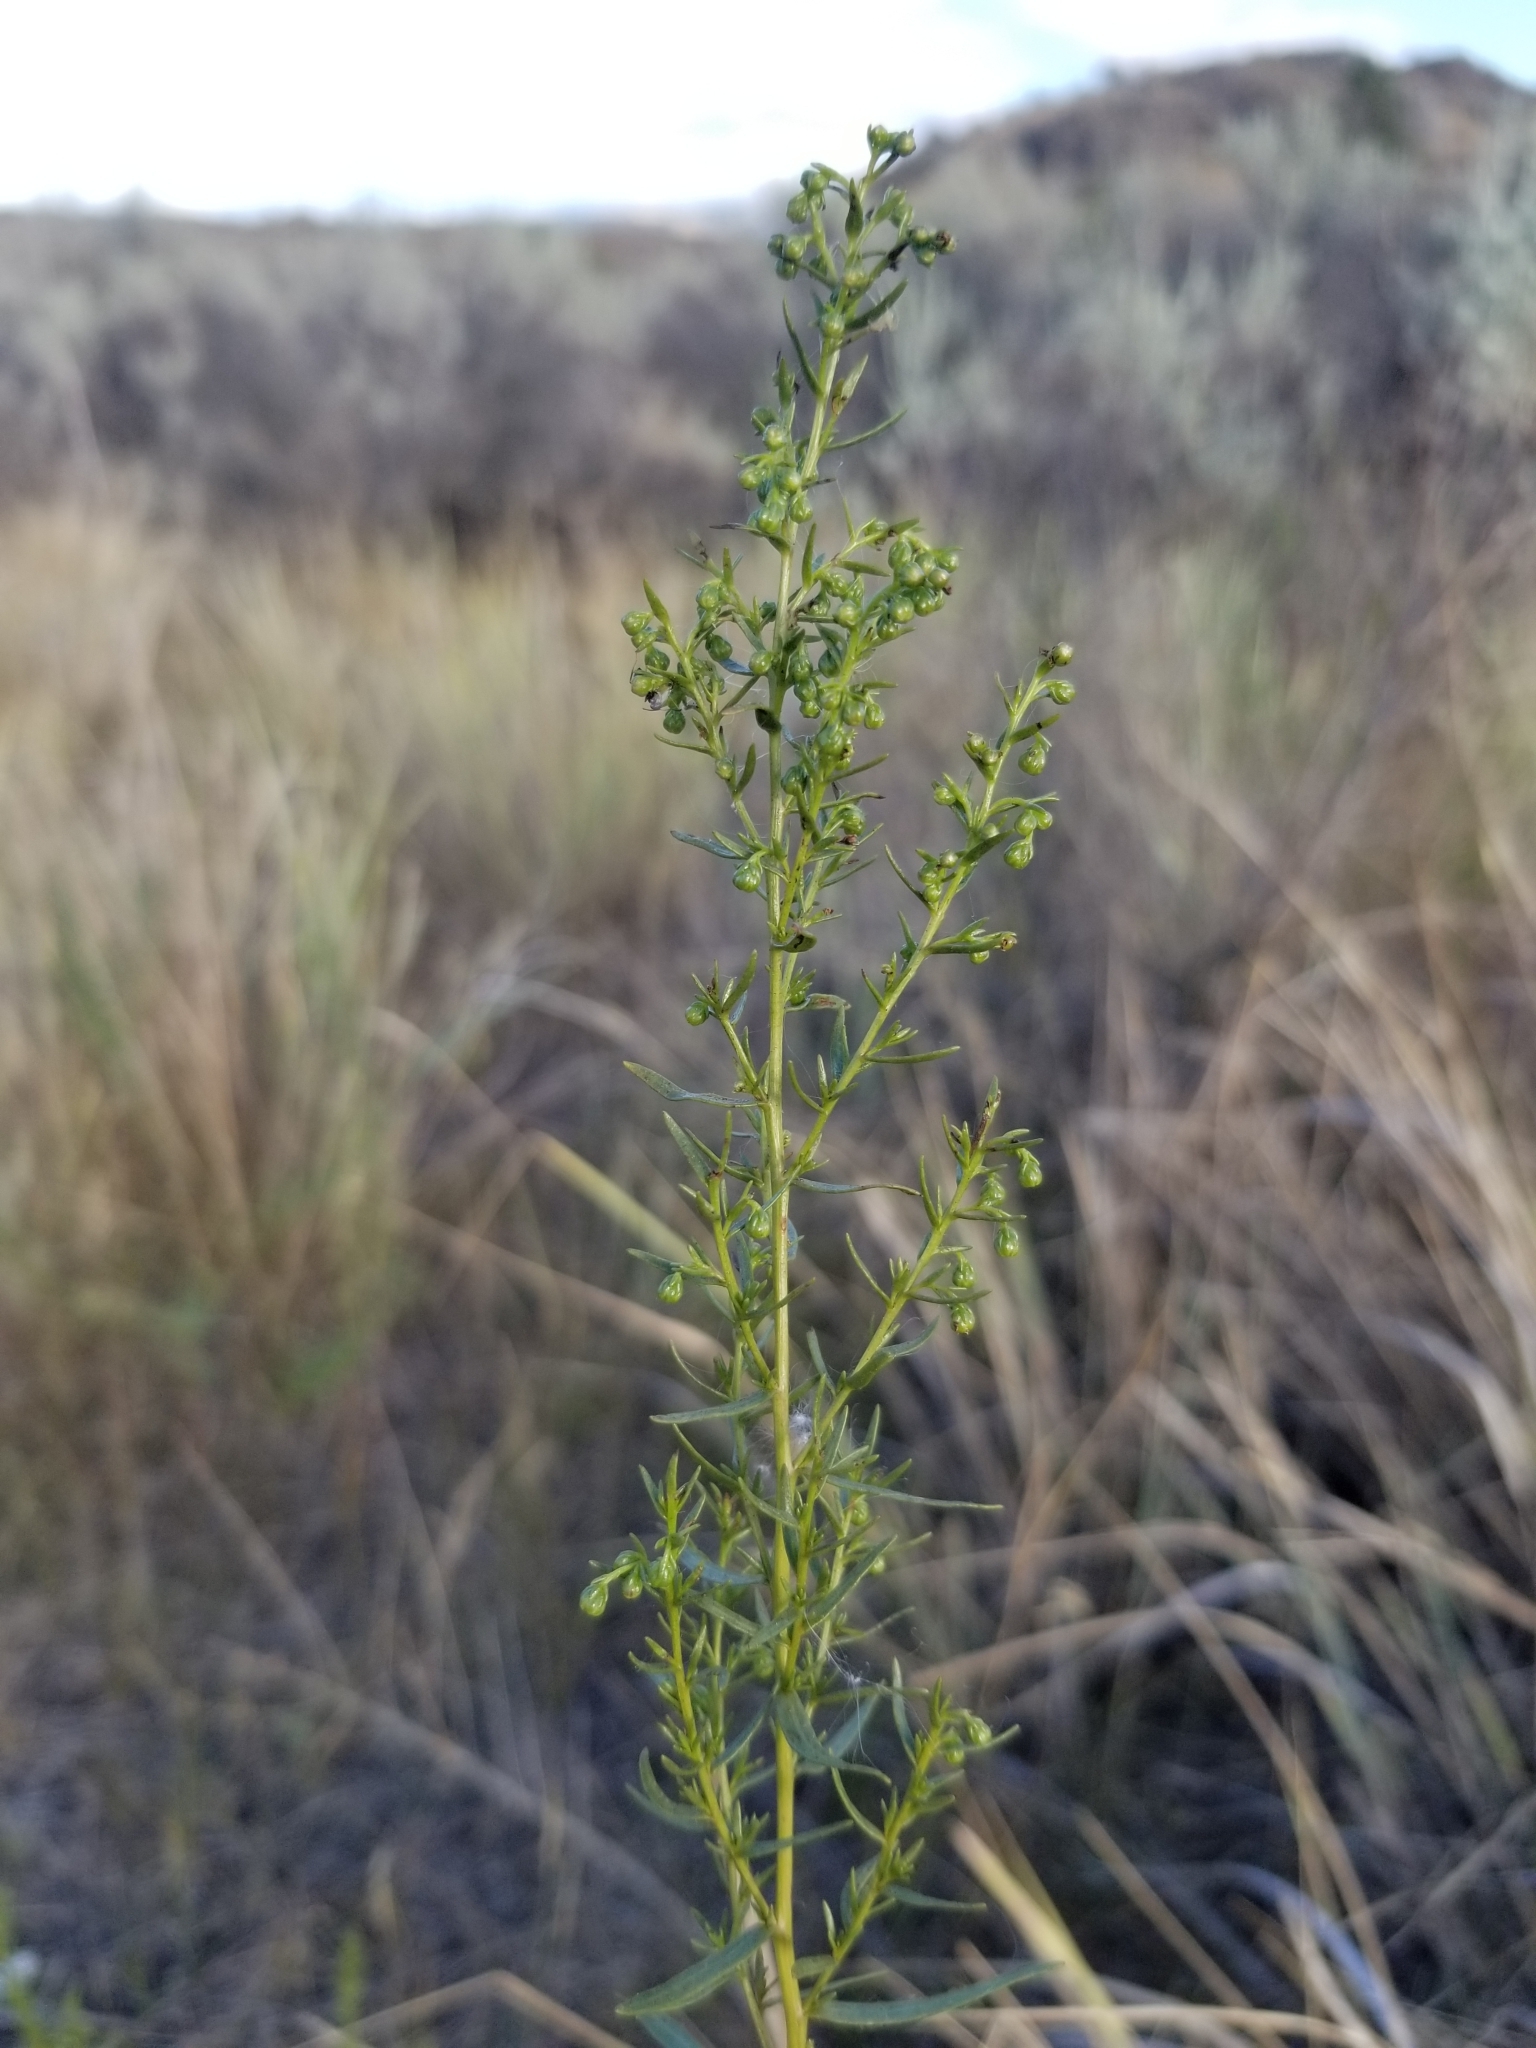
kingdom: Plantae
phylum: Tracheophyta
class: Magnoliopsida
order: Asterales
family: Asteraceae
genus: Artemisia
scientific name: Artemisia dracunculus
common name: Tarragon
